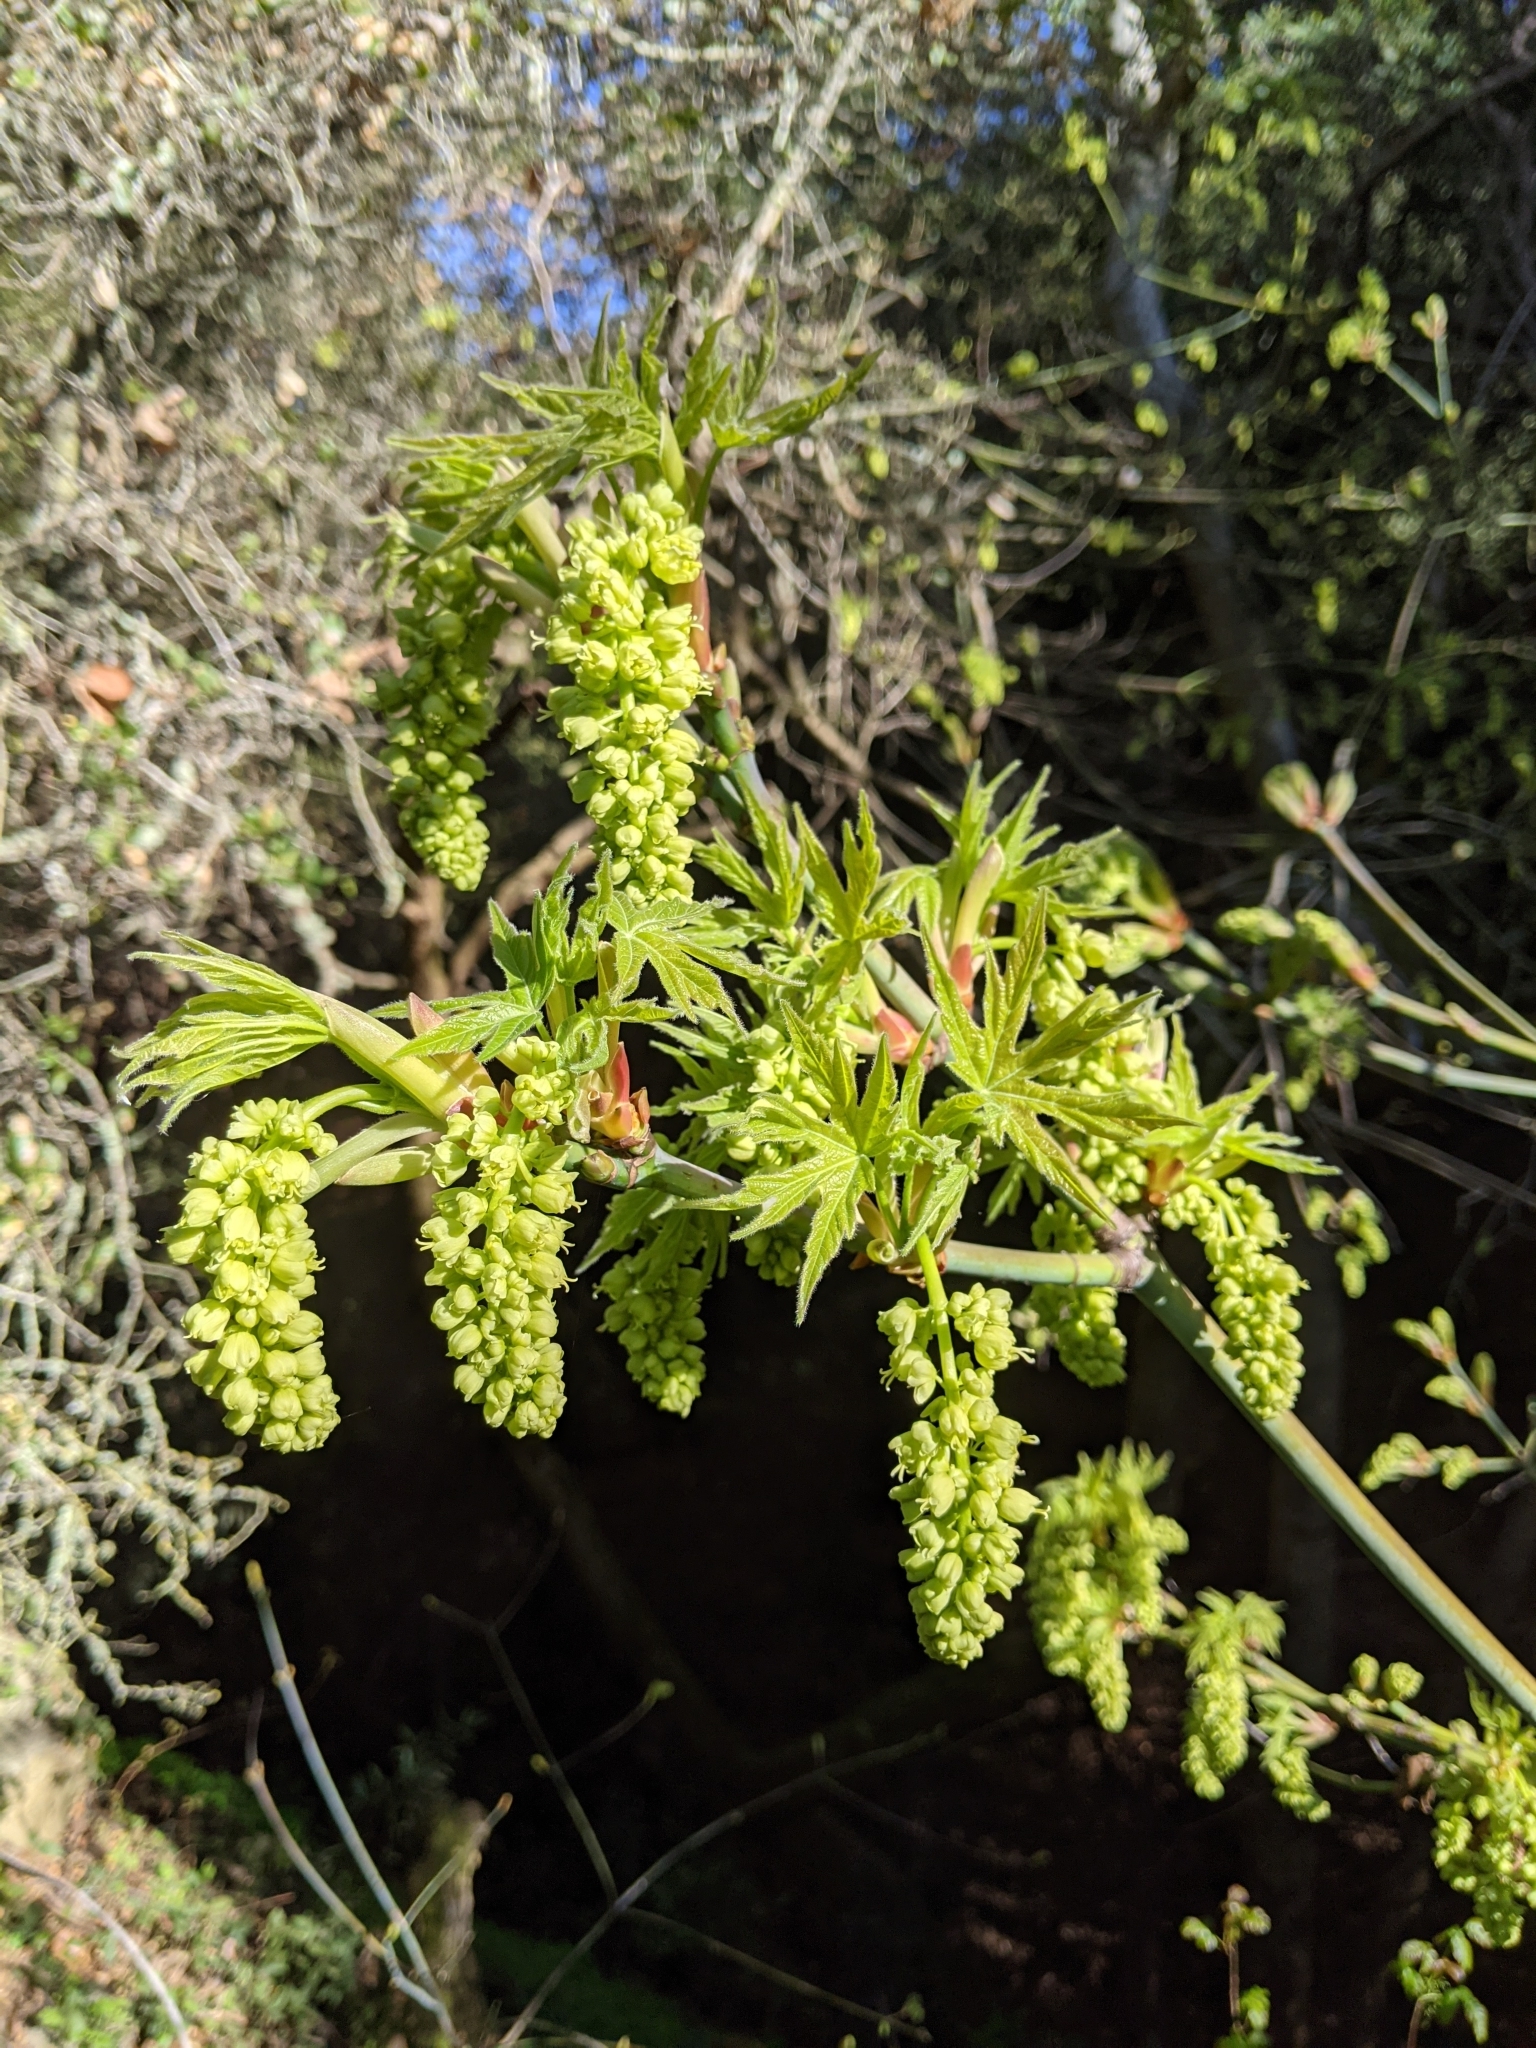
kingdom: Plantae
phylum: Tracheophyta
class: Magnoliopsida
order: Sapindales
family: Sapindaceae
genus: Acer
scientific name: Acer macrophyllum
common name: Oregon maple
